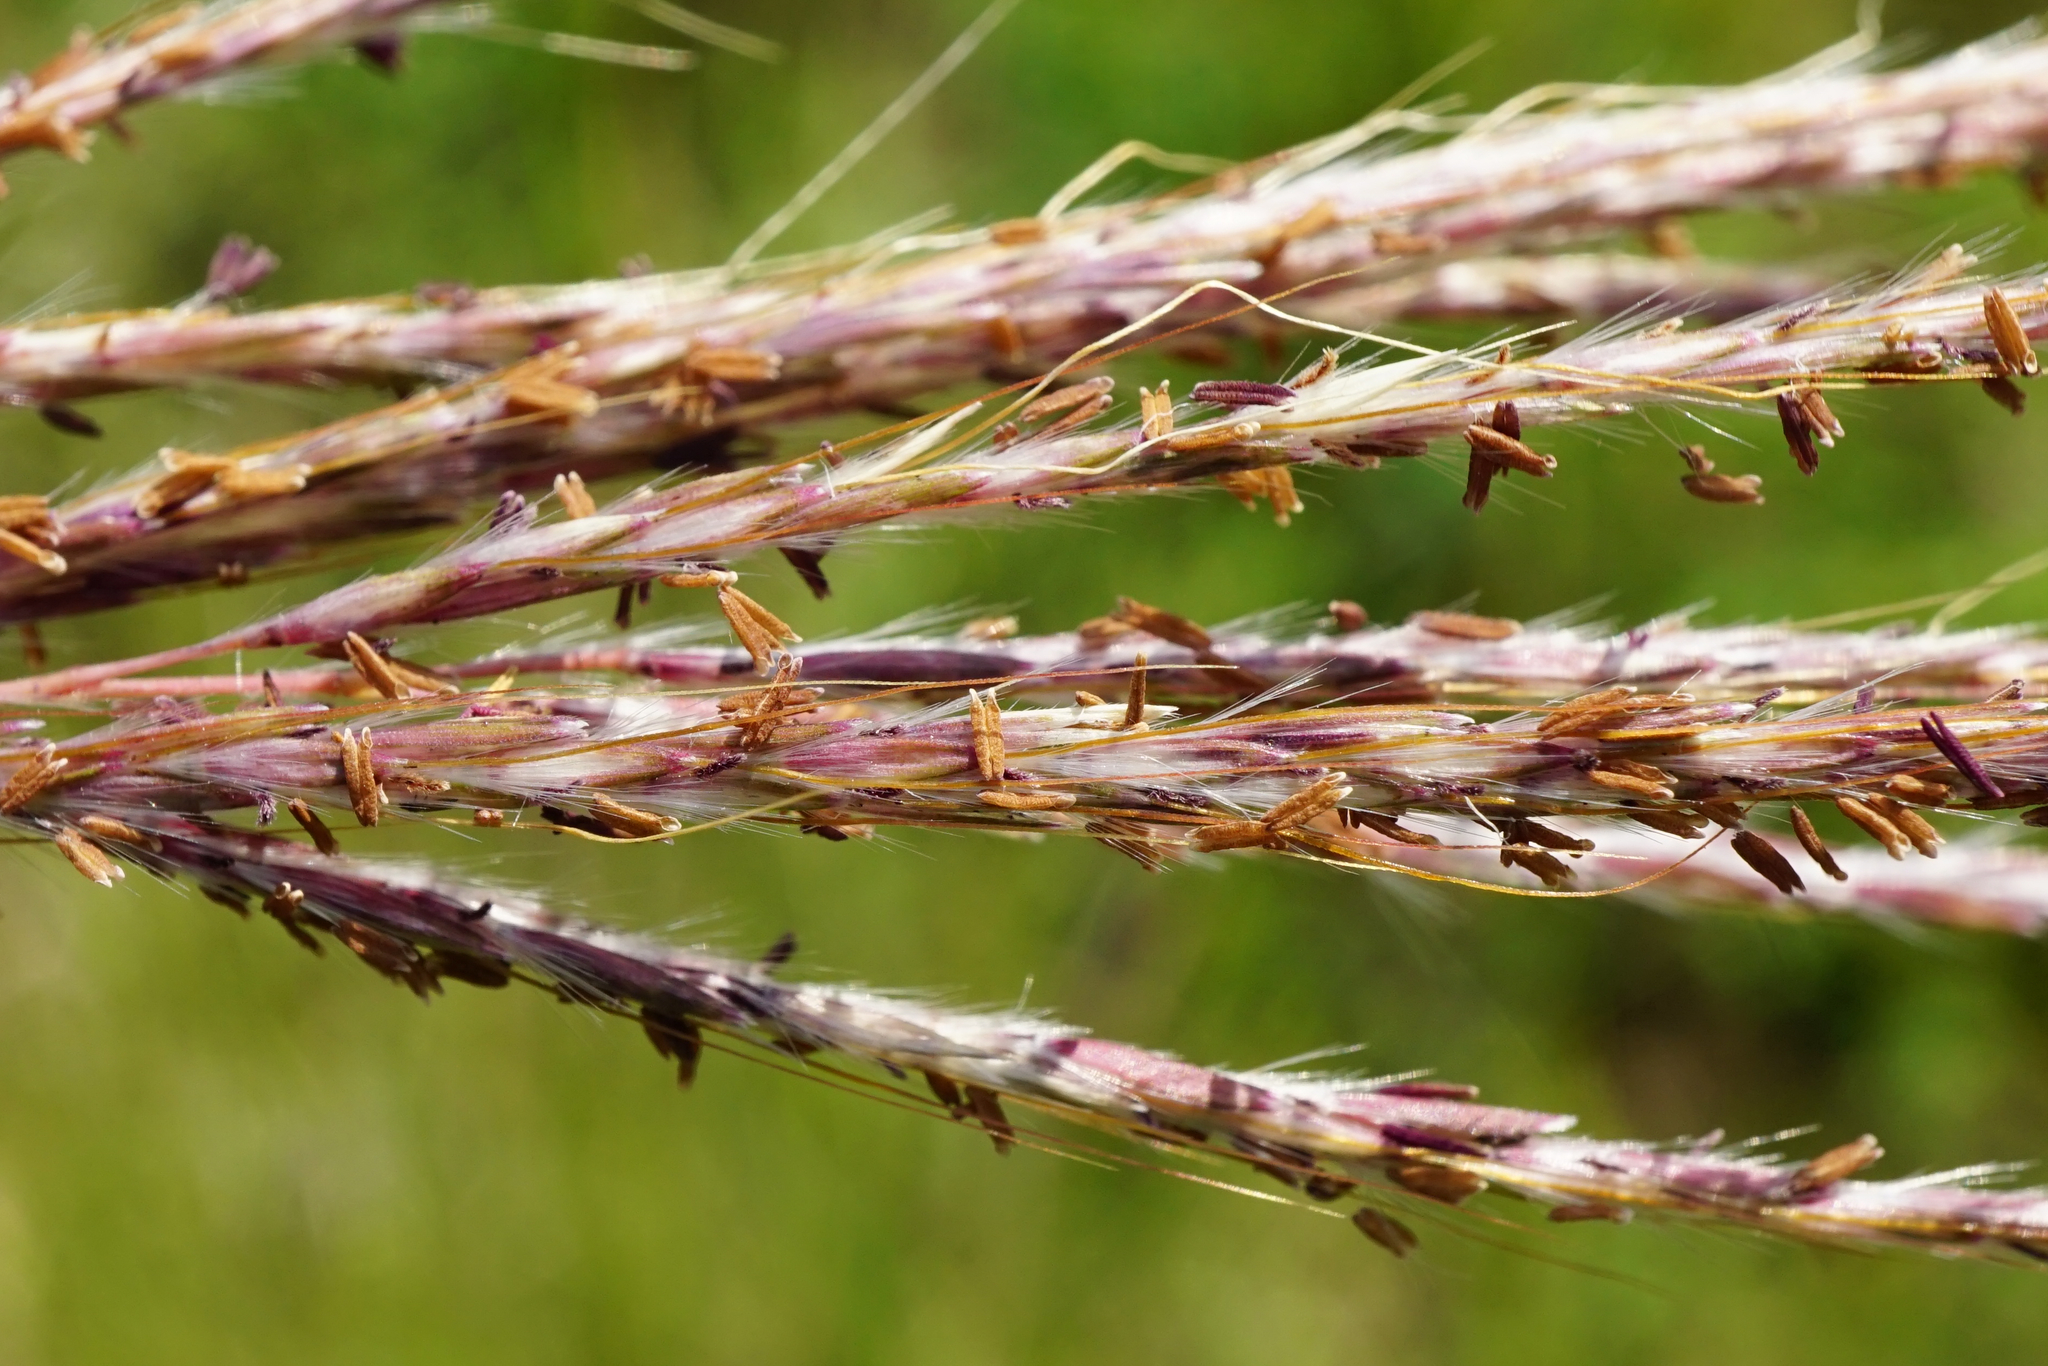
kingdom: Plantae
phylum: Tracheophyta
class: Liliopsida
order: Poales
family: Poaceae
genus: Bothriochloa
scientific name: Bothriochloa ischaemum
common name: Yellow bluestem
